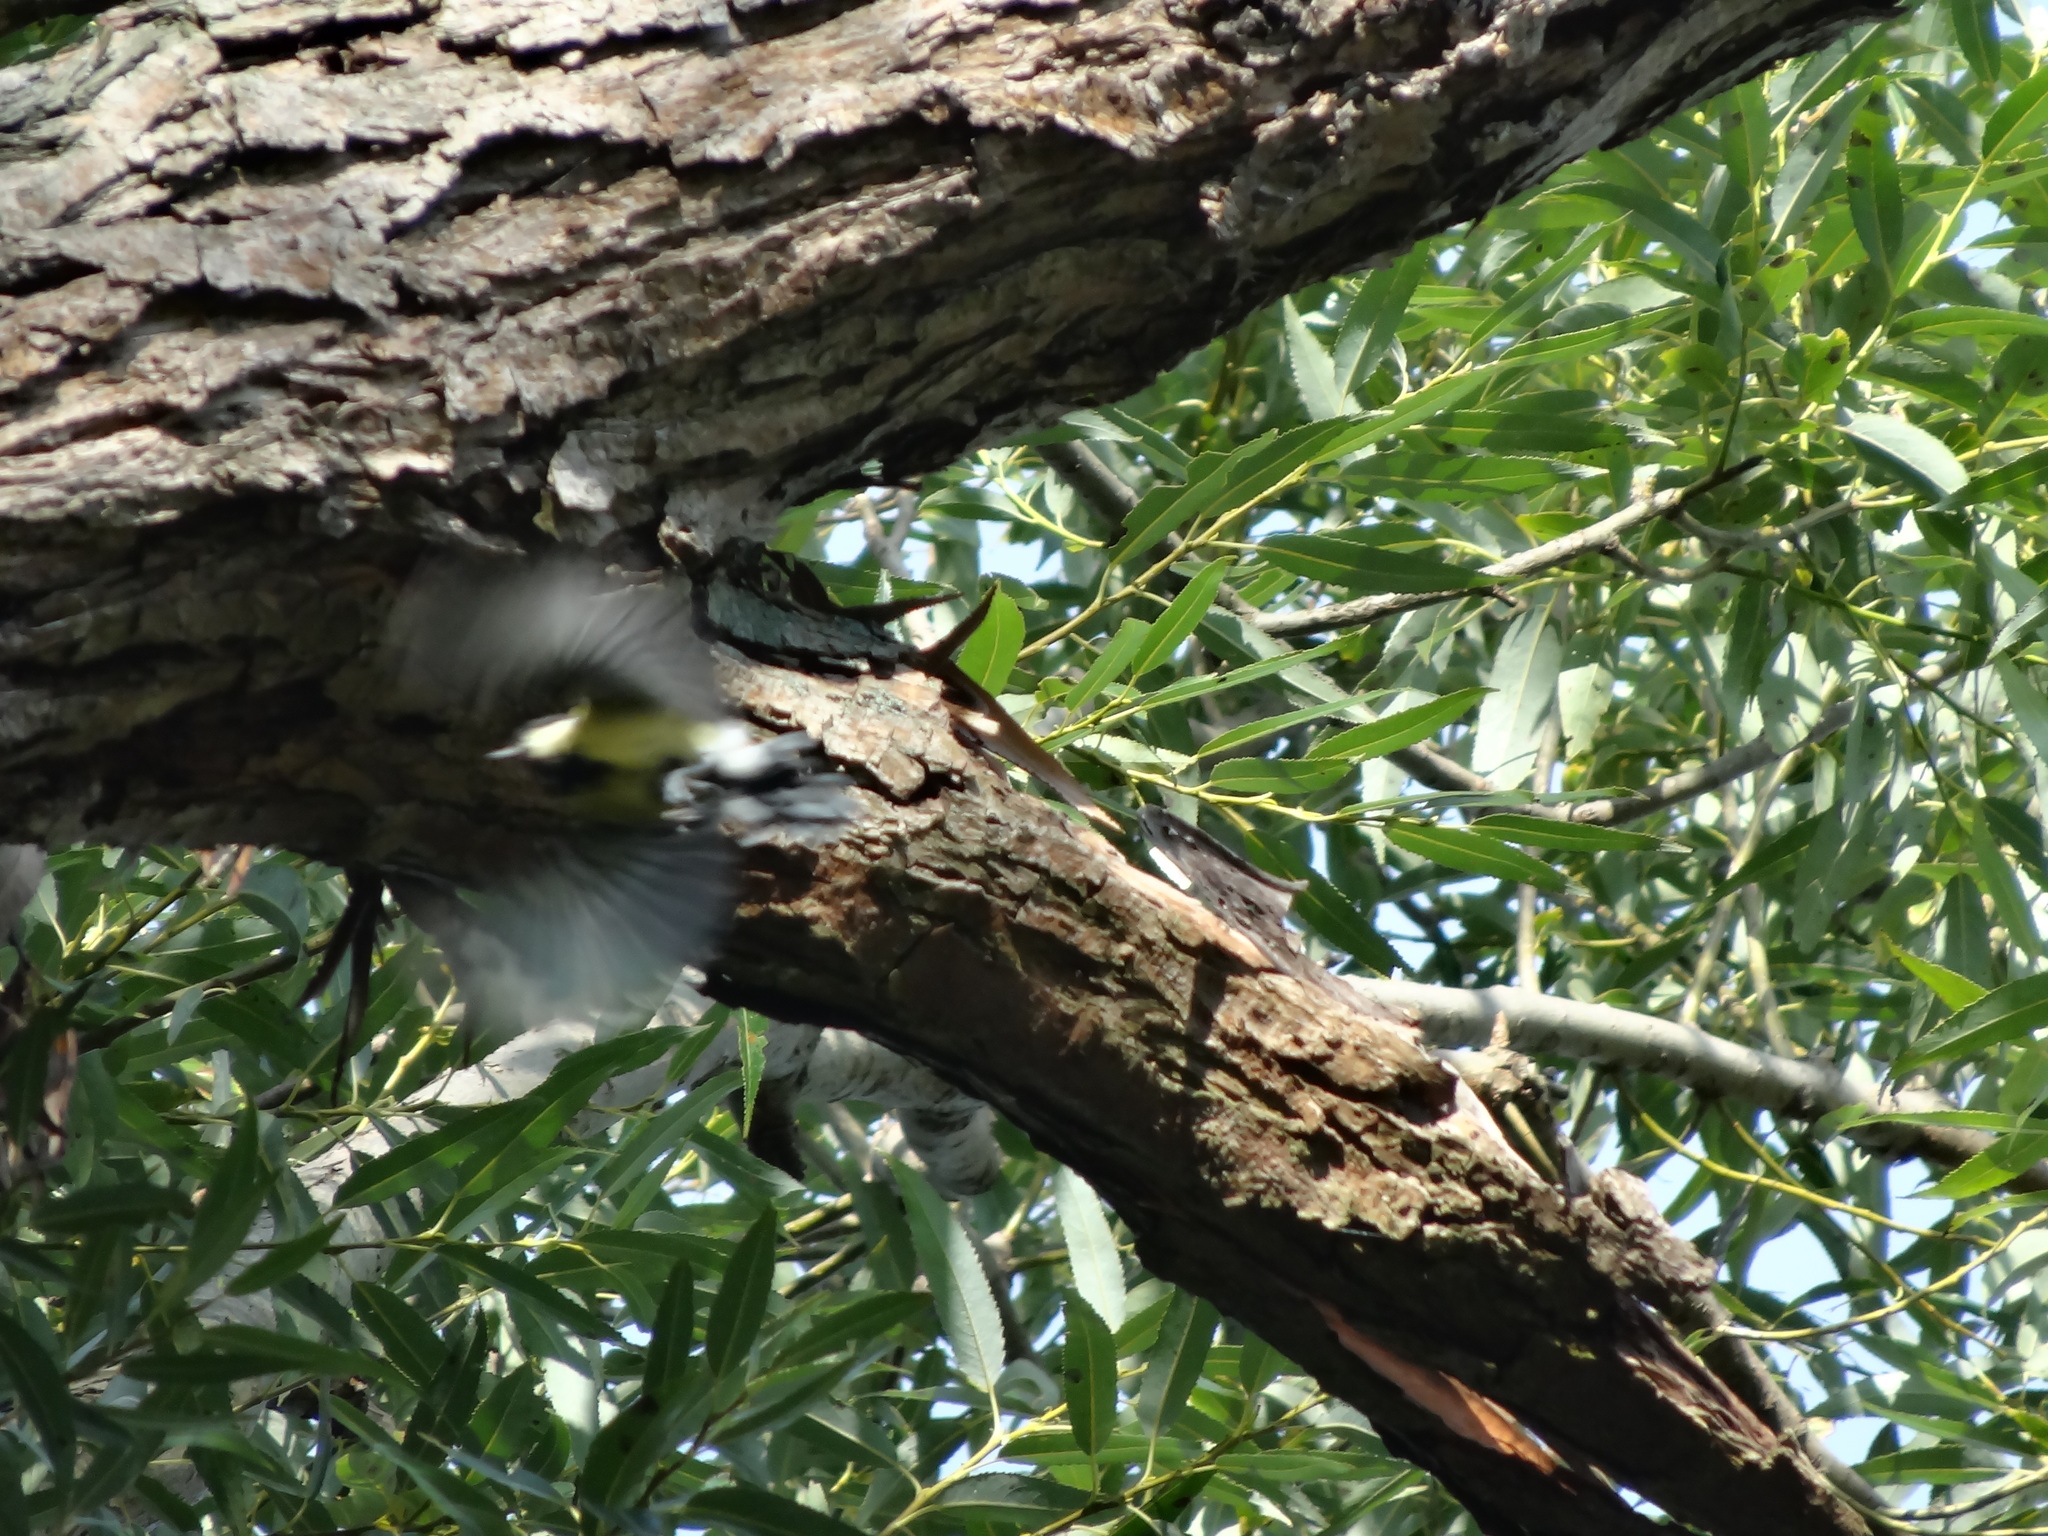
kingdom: Animalia
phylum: Chordata
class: Aves
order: Passeriformes
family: Paridae
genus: Parus
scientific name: Parus major
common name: Great tit
